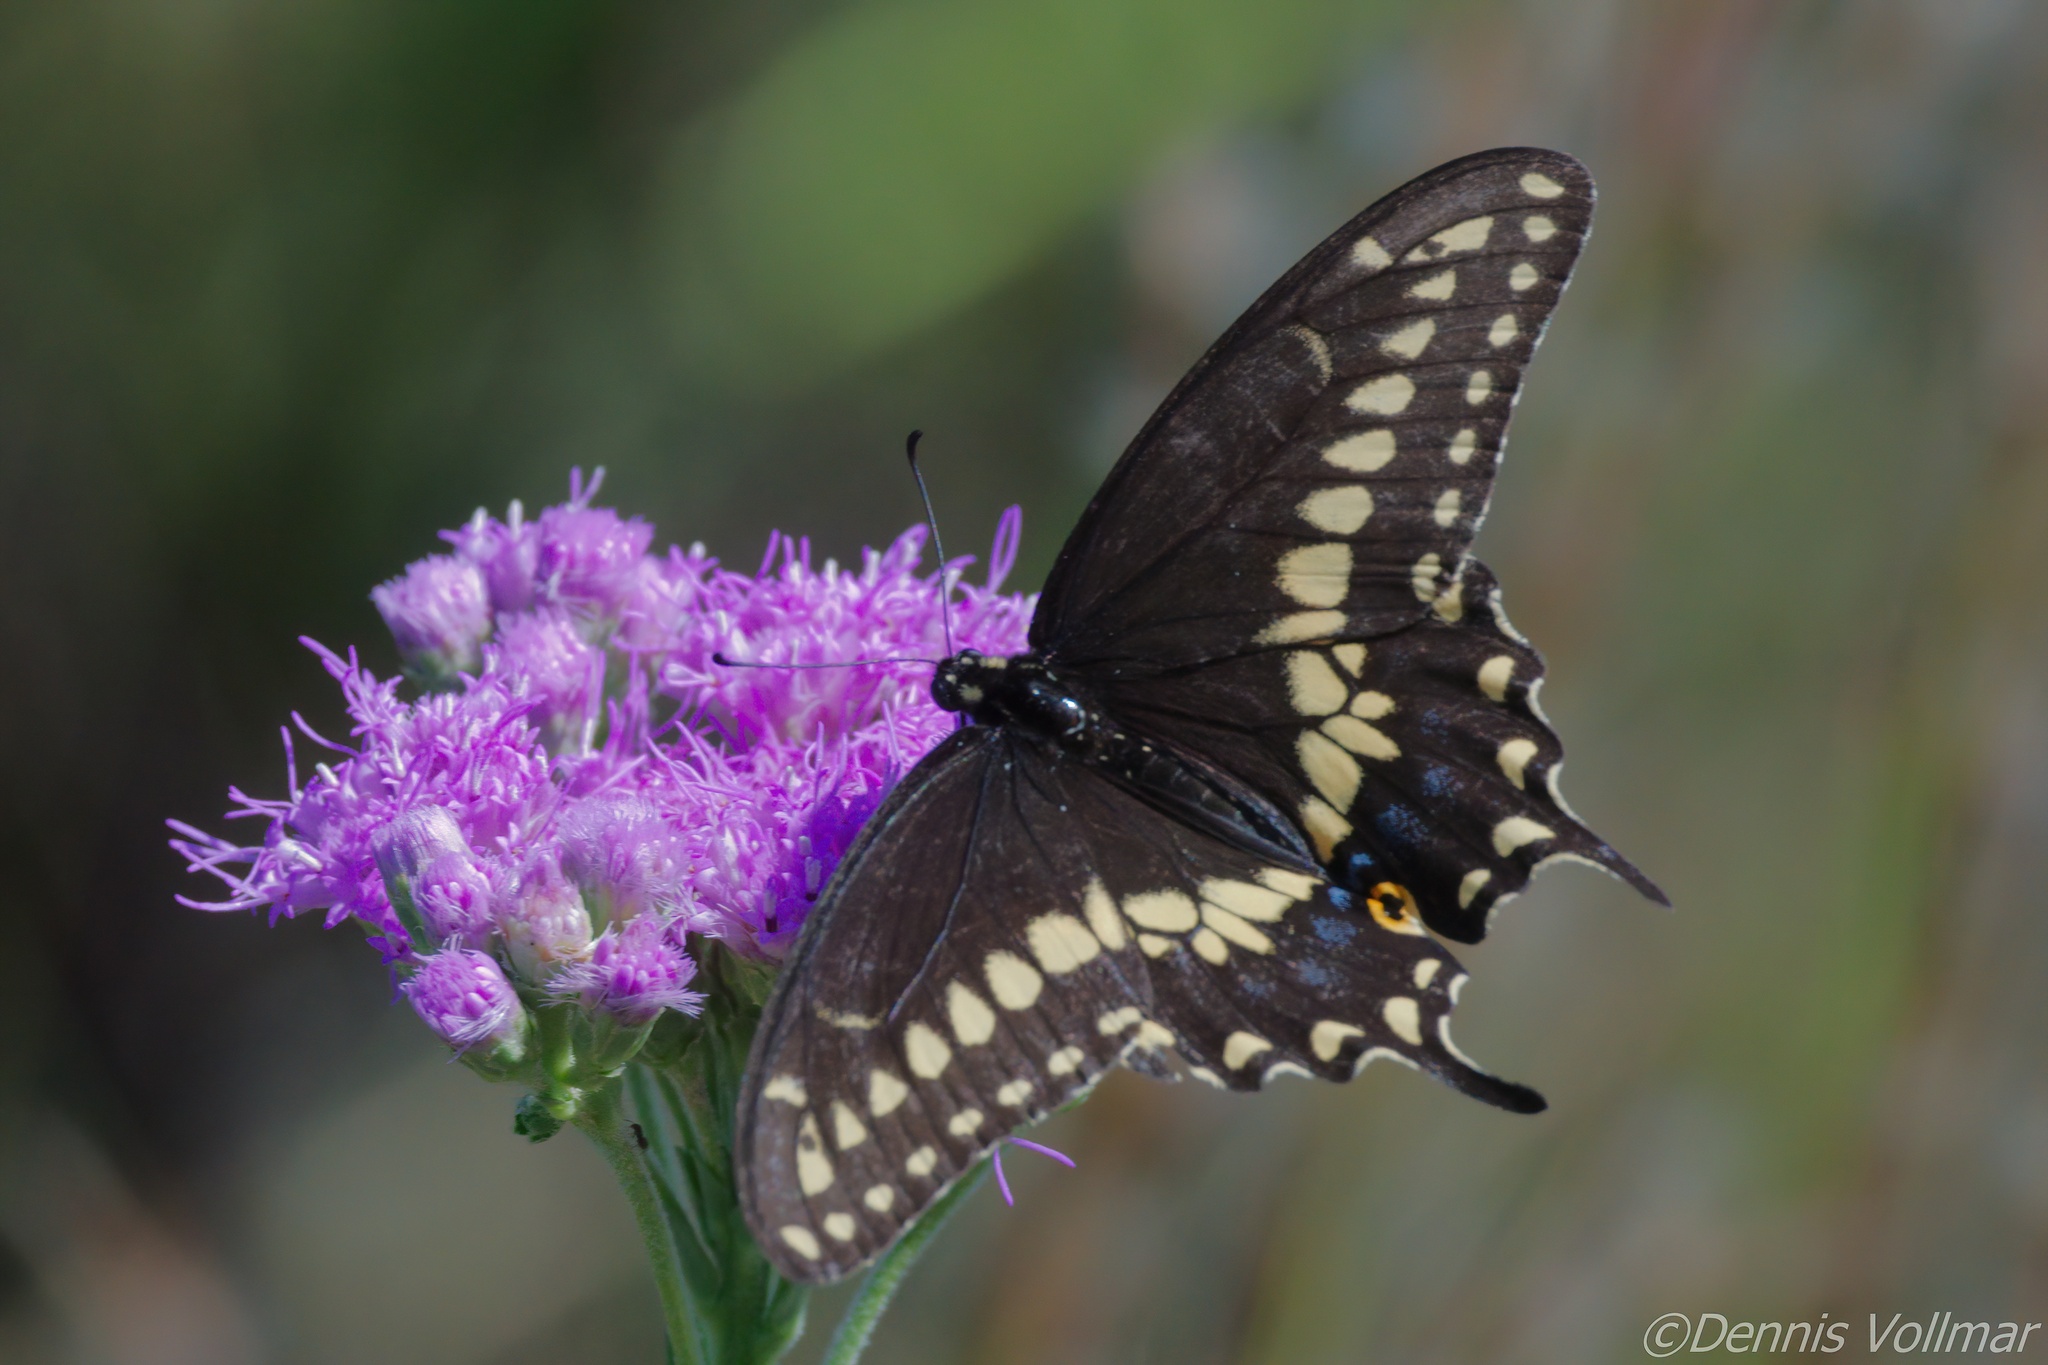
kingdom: Animalia
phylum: Arthropoda
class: Insecta
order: Lepidoptera
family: Papilionidae
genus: Papilio
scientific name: Papilio polyxenes
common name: Black swallowtail
